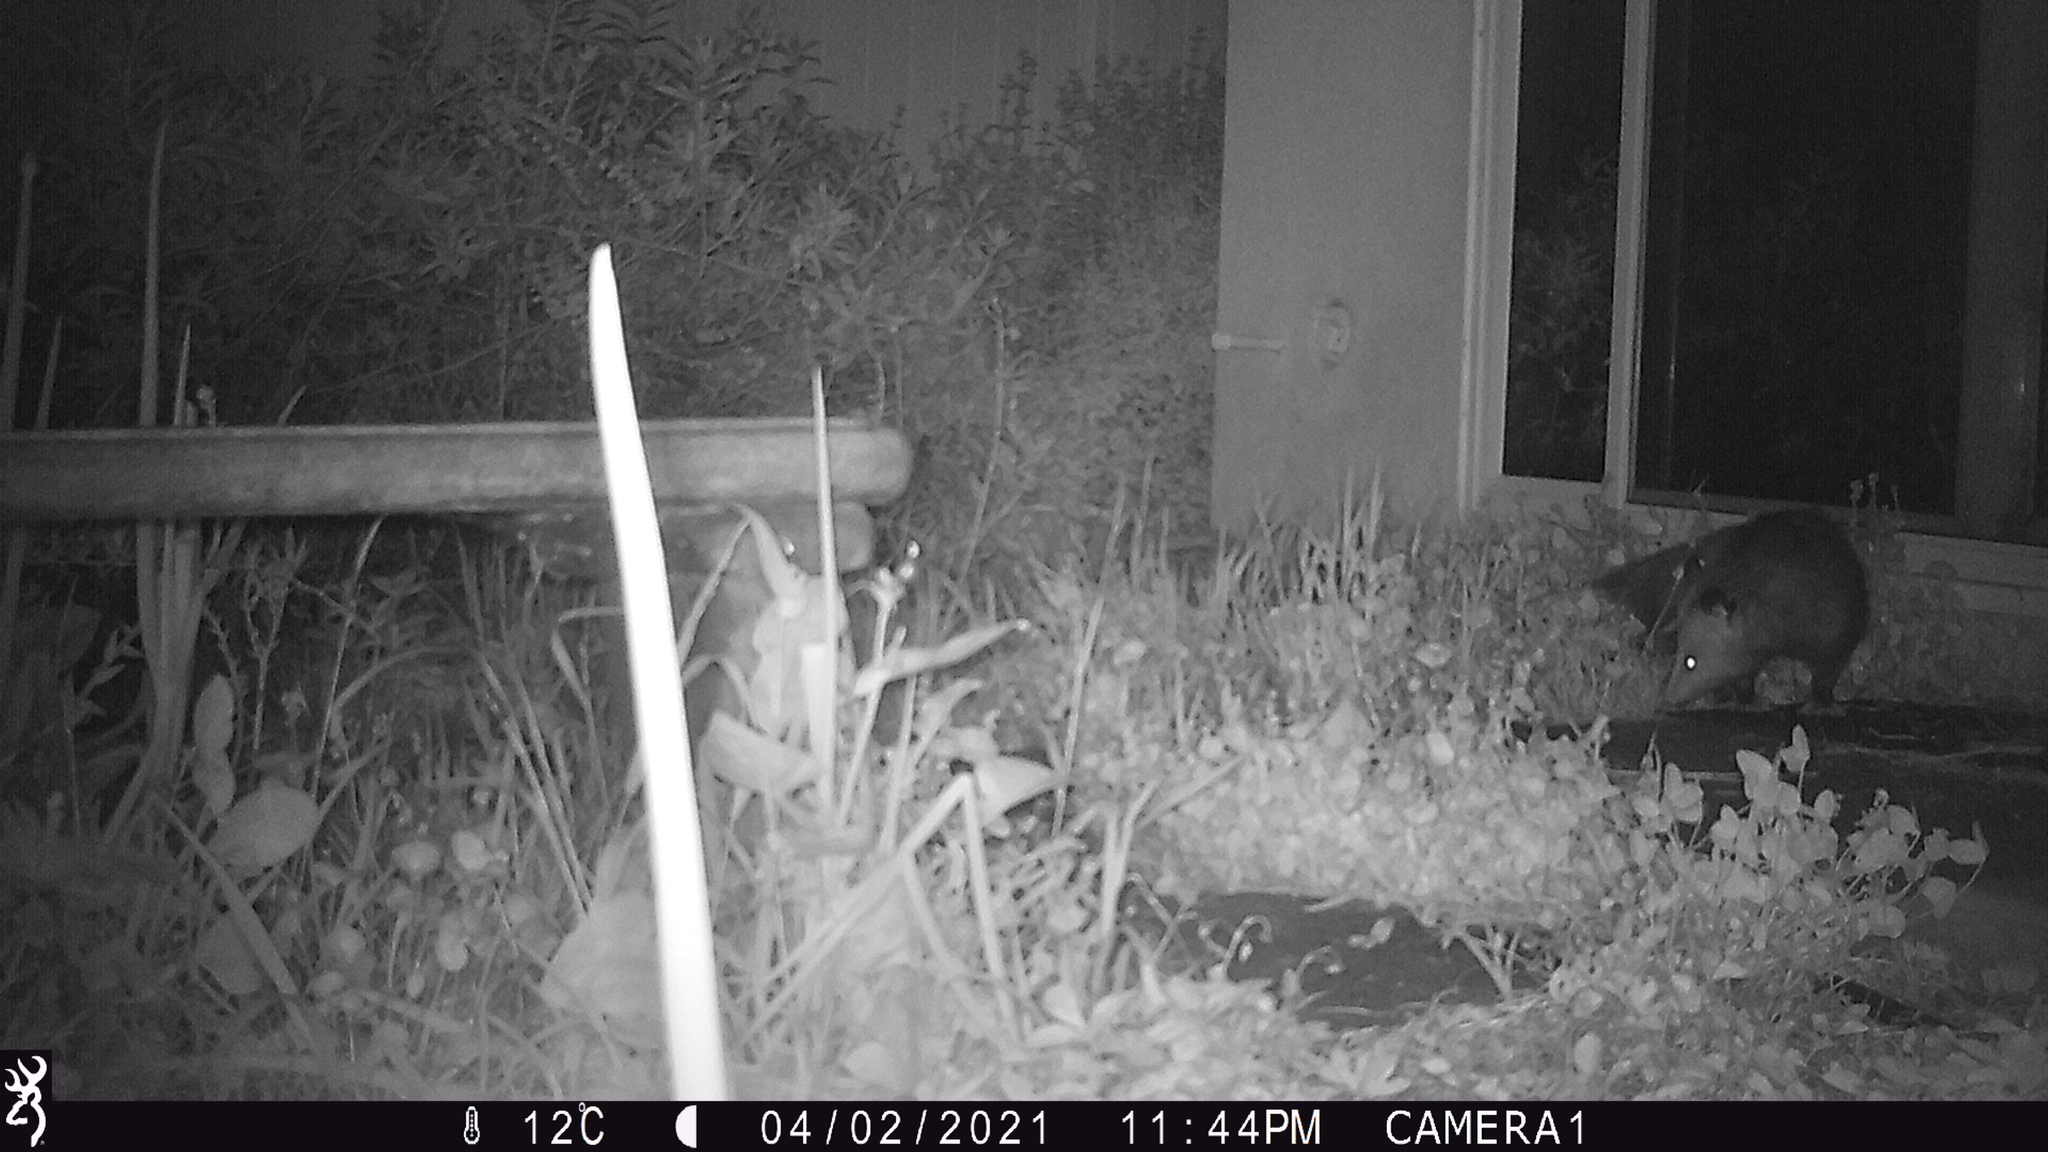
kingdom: Animalia
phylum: Chordata
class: Mammalia
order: Didelphimorphia
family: Didelphidae
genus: Didelphis
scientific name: Didelphis virginiana
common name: Virginia opossum
